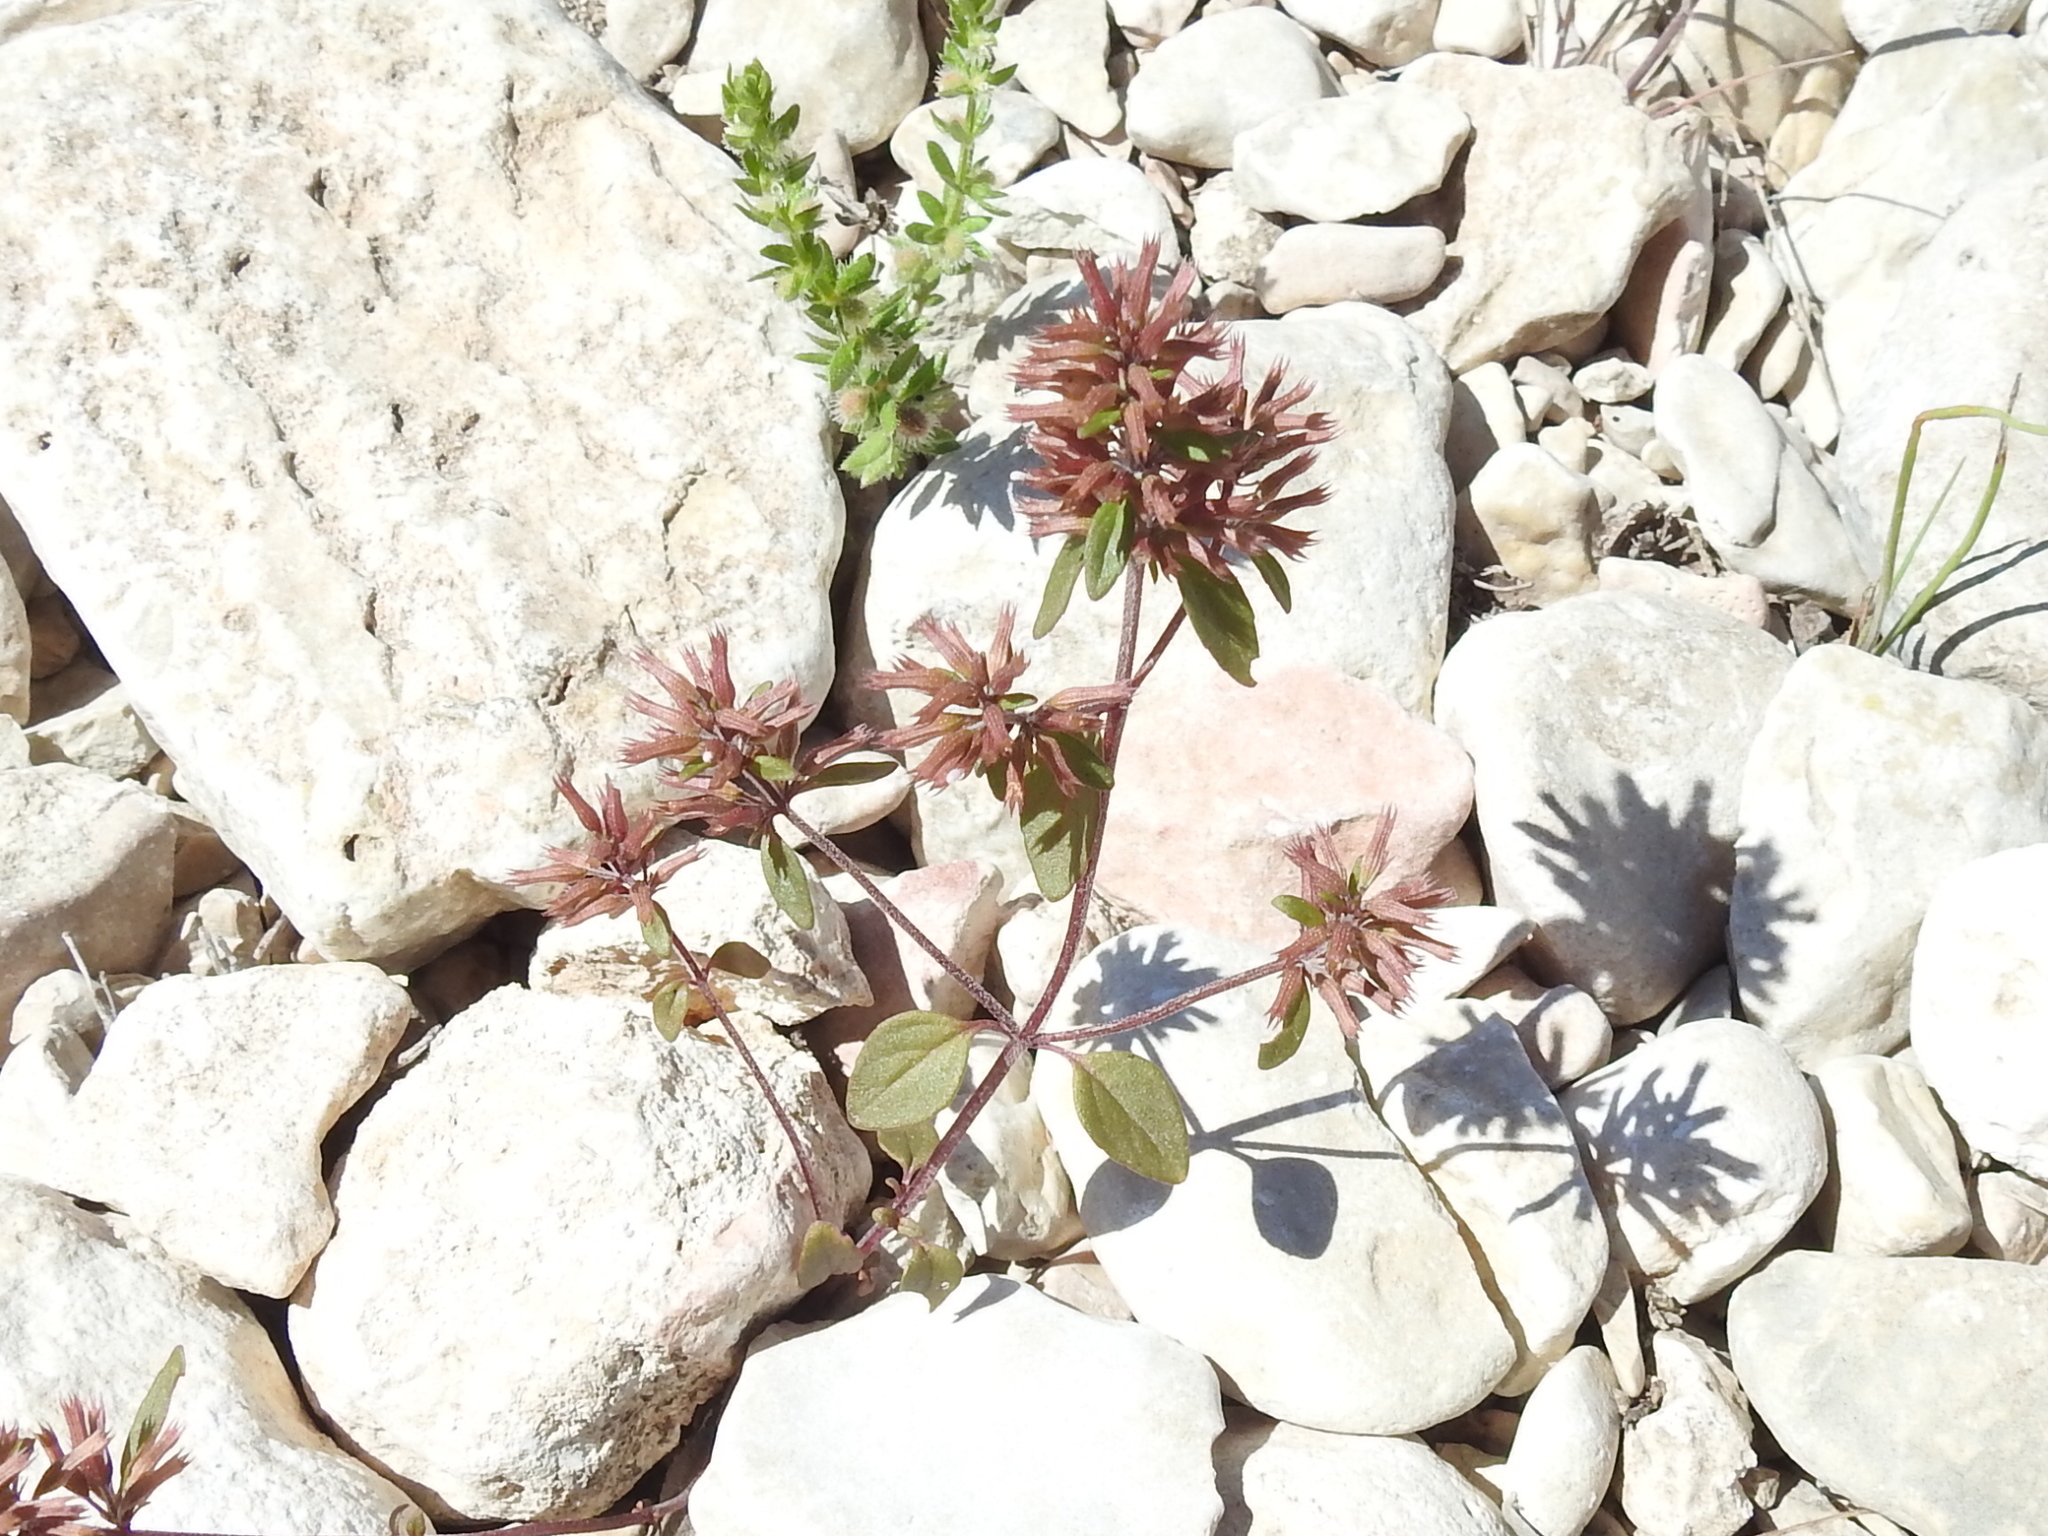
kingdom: Plantae
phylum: Tracheophyta
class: Magnoliopsida
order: Lamiales
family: Lamiaceae
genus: Hedeoma
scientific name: Hedeoma acinoides
